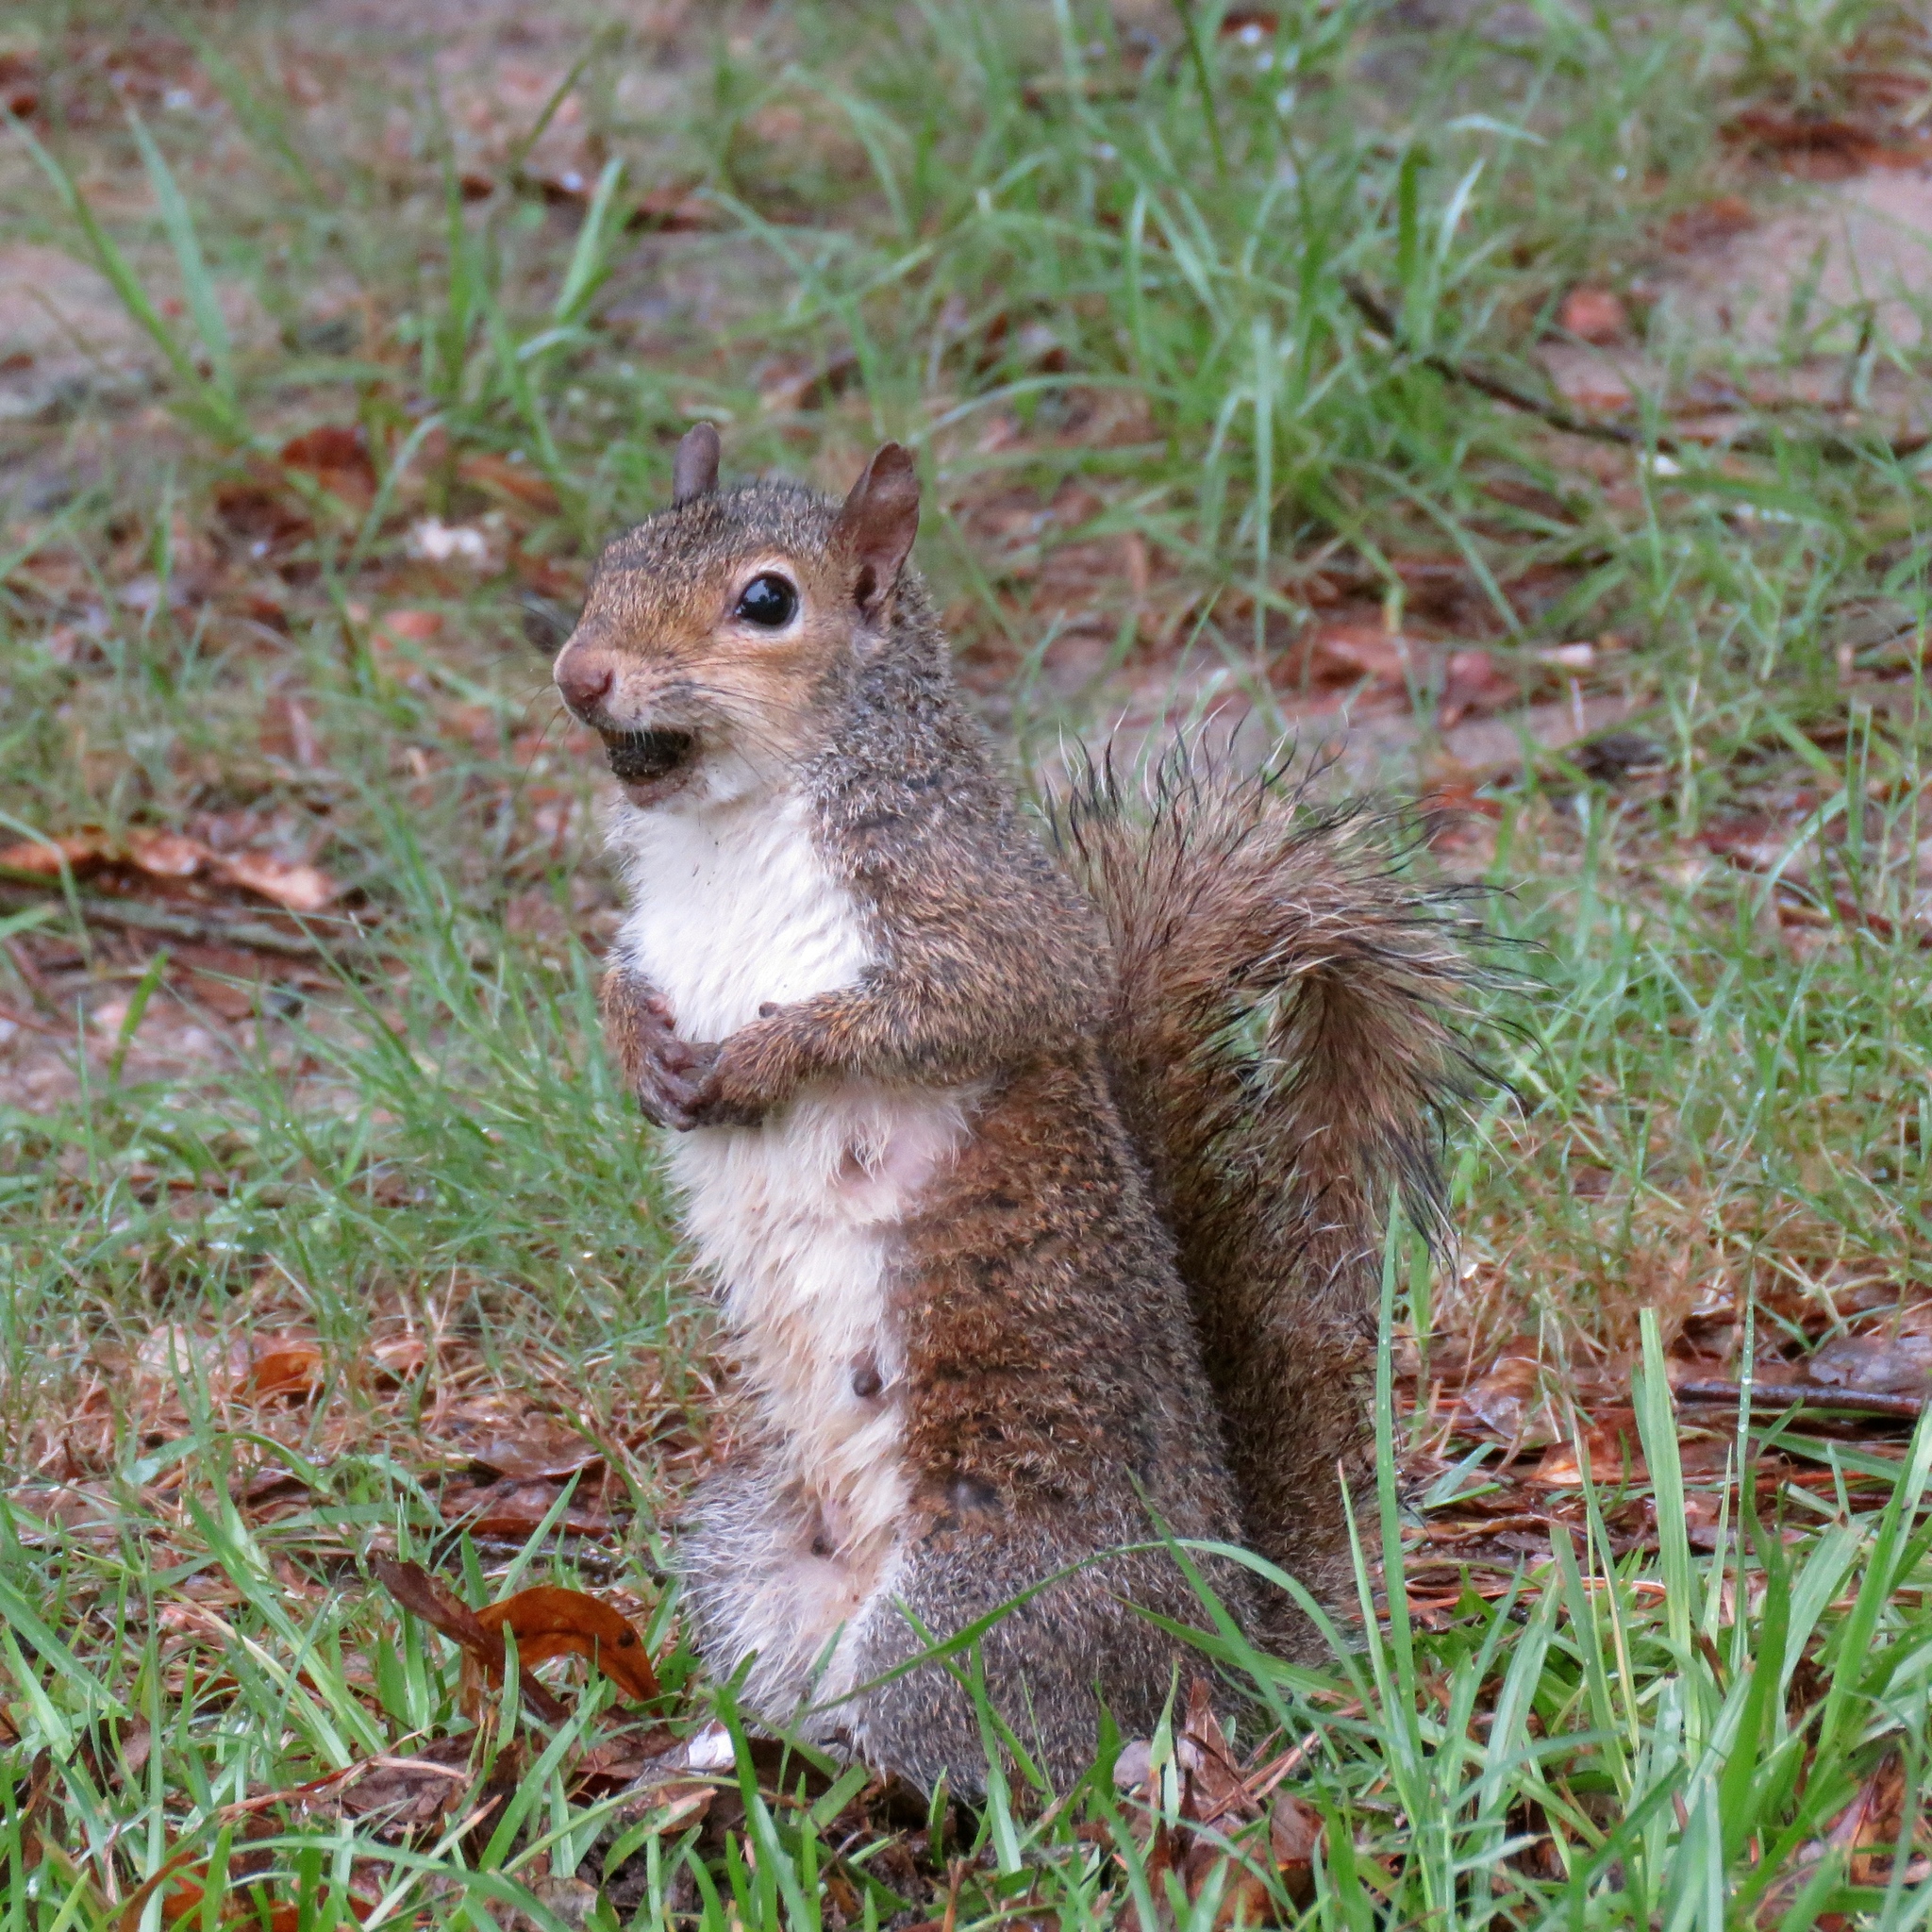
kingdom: Animalia
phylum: Chordata
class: Mammalia
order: Rodentia
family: Sciuridae
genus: Sciurus
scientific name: Sciurus carolinensis
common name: Eastern gray squirrel
